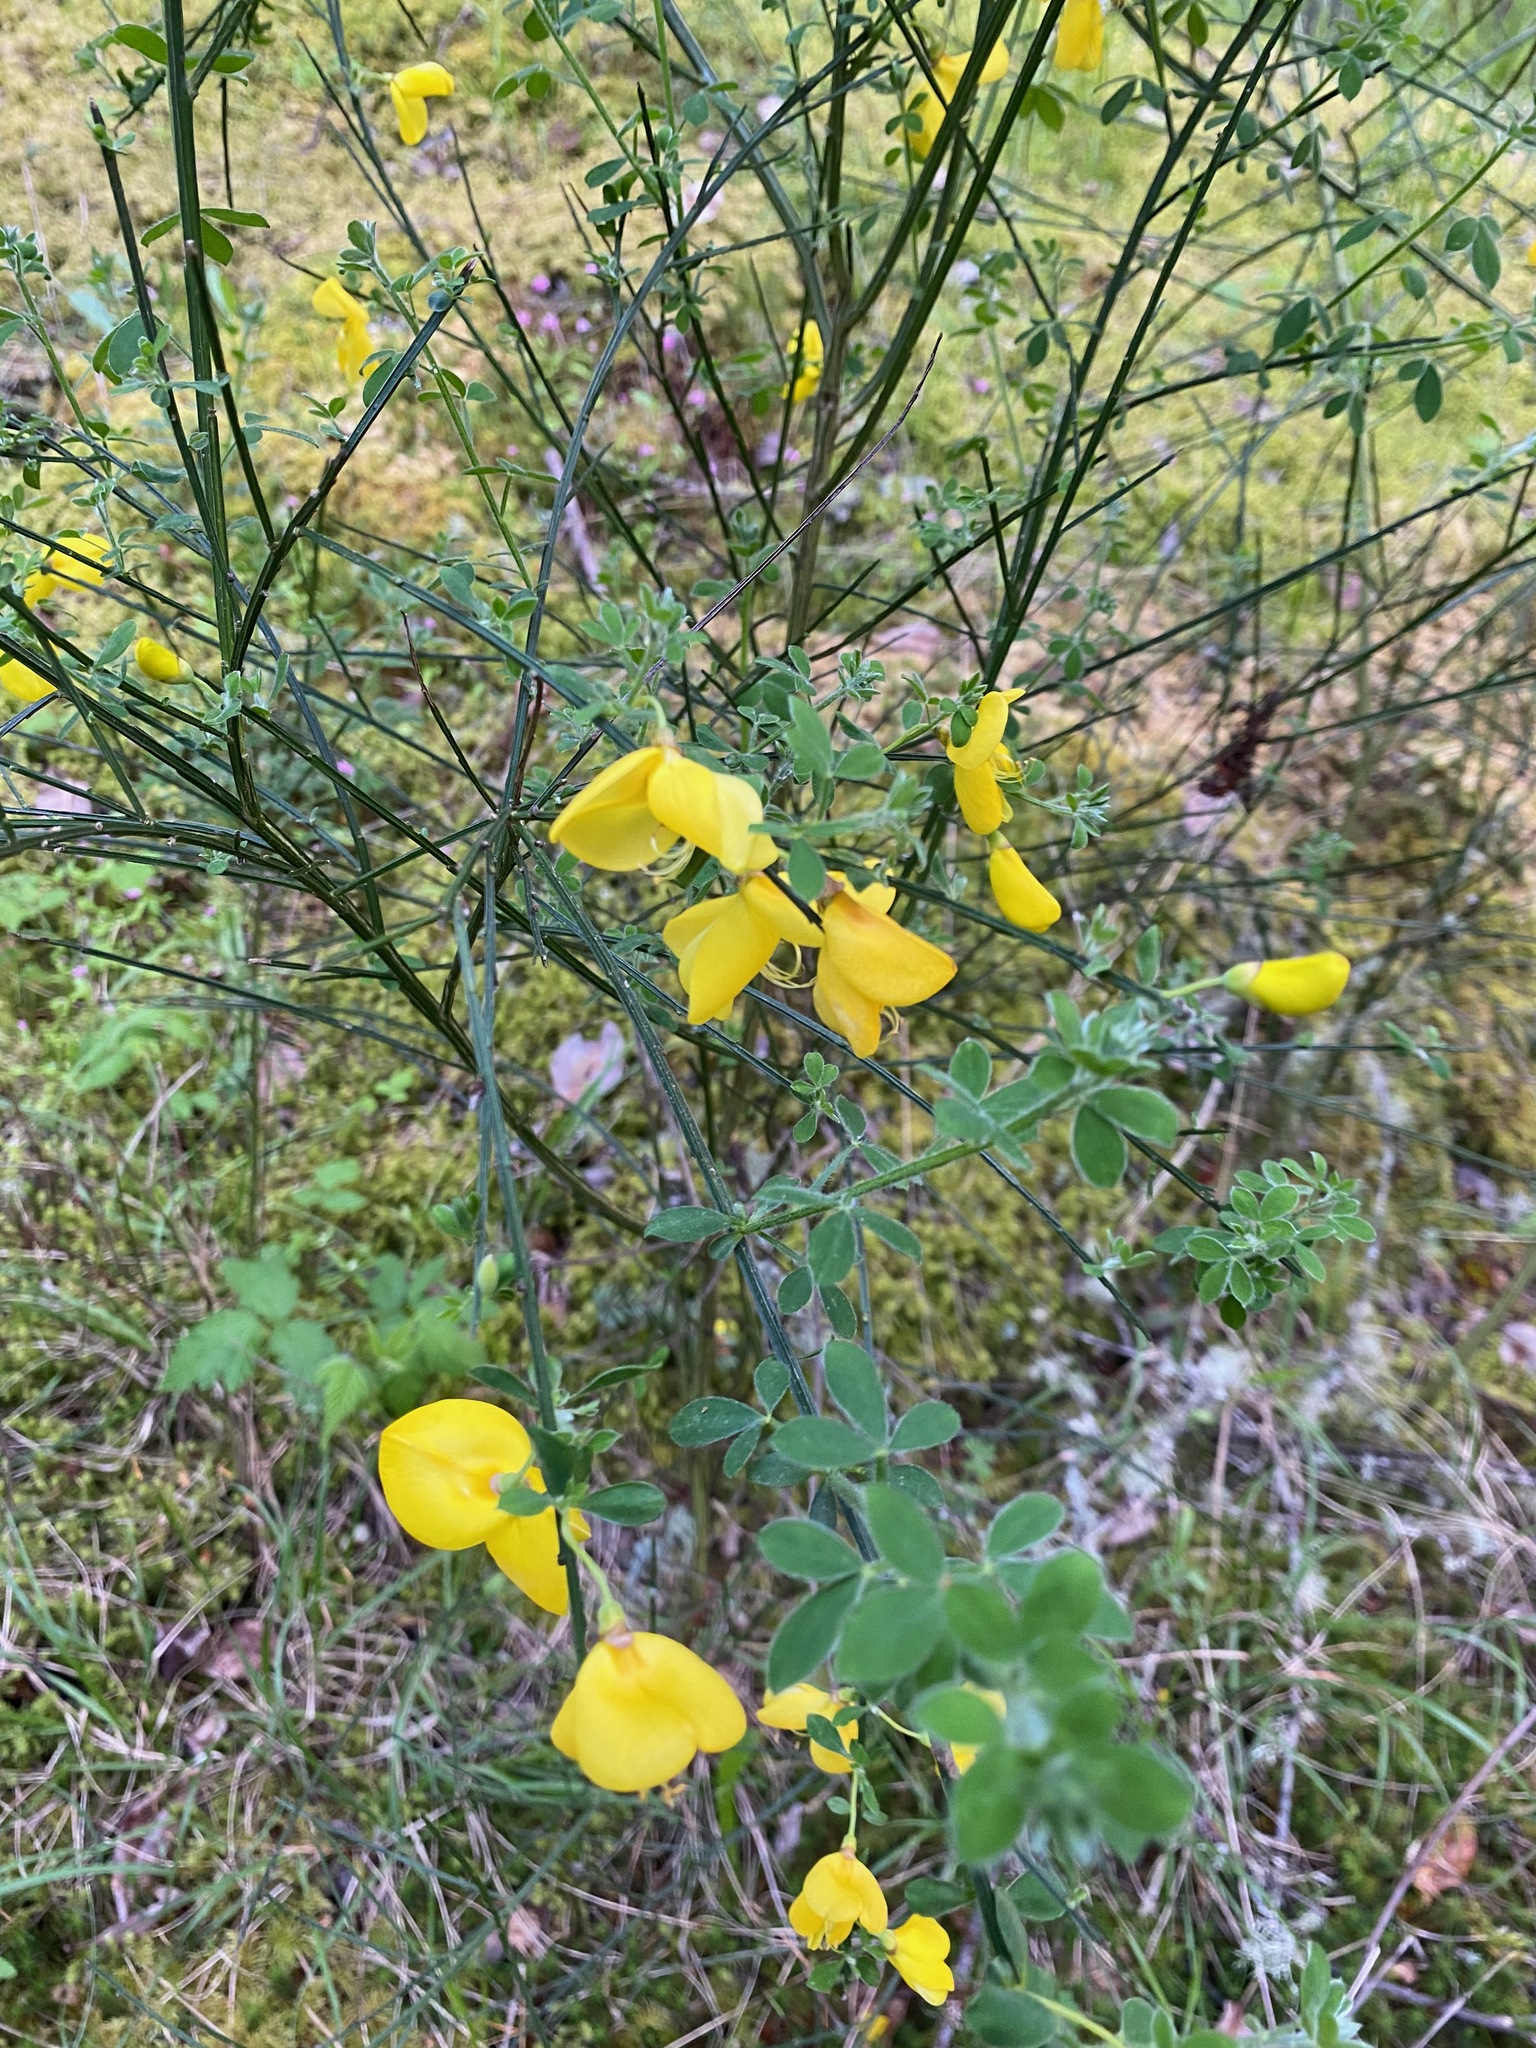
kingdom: Plantae
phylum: Tracheophyta
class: Magnoliopsida
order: Fabales
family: Fabaceae
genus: Cytisus
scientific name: Cytisus scoparius
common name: Scotch broom
